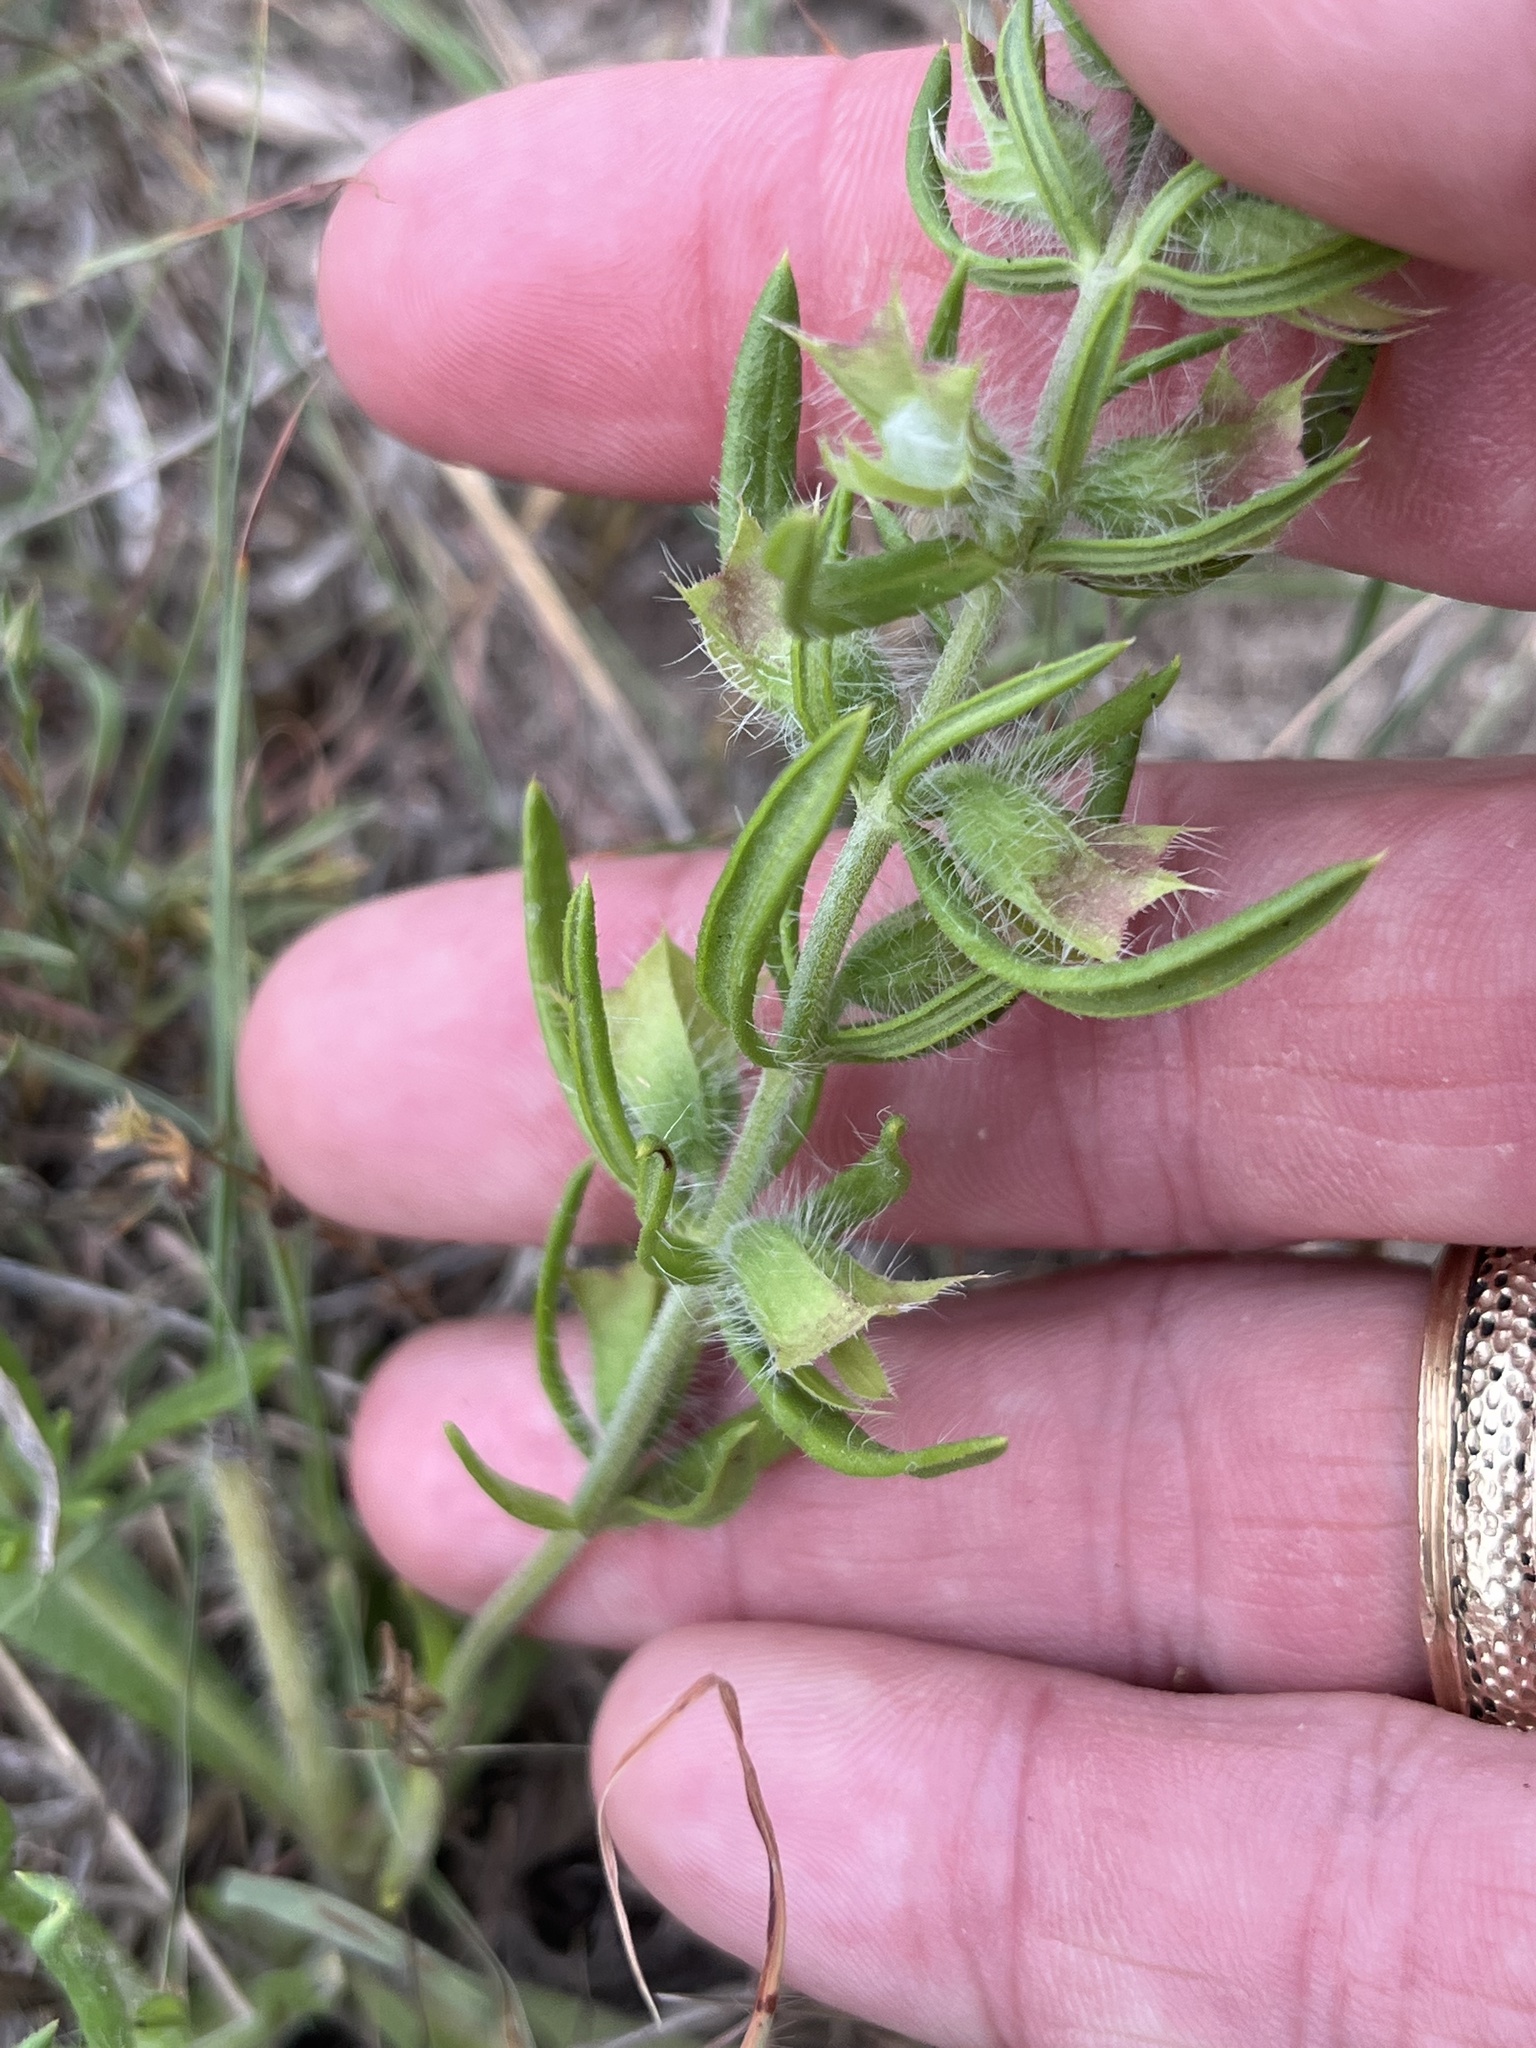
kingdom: Plantae
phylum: Tracheophyta
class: Magnoliopsida
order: Lamiales
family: Lamiaceae
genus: Salvia
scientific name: Salvia texana
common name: Texas sage
